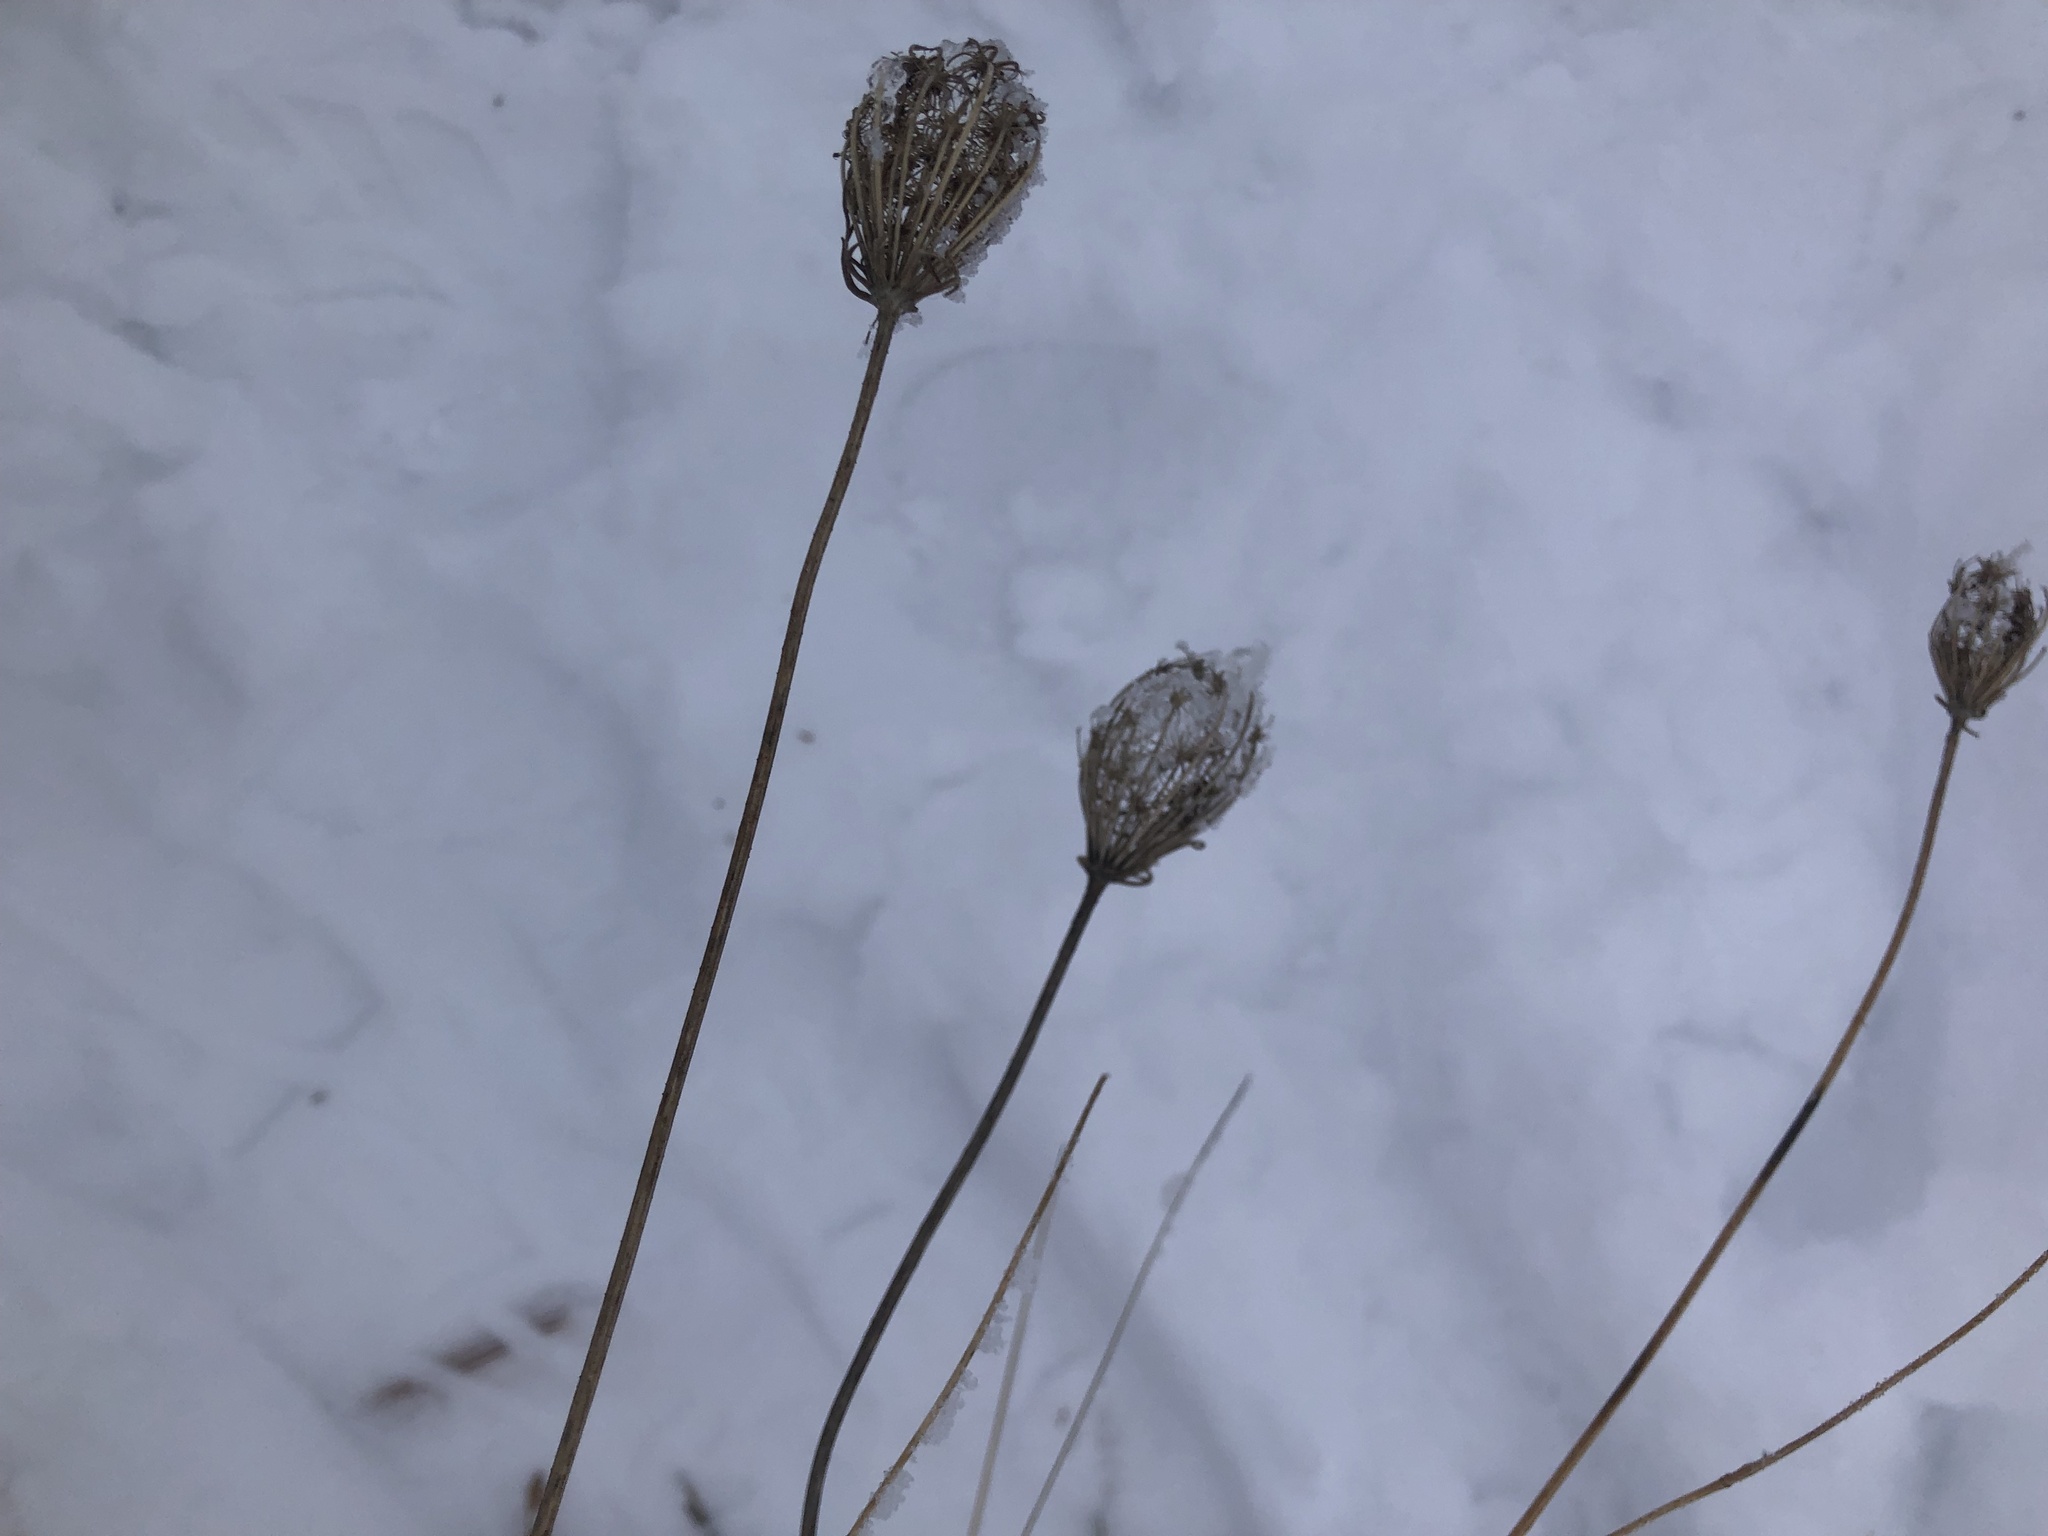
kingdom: Plantae
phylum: Tracheophyta
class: Magnoliopsida
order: Apiales
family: Apiaceae
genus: Daucus
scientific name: Daucus carota
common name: Wild carrot
